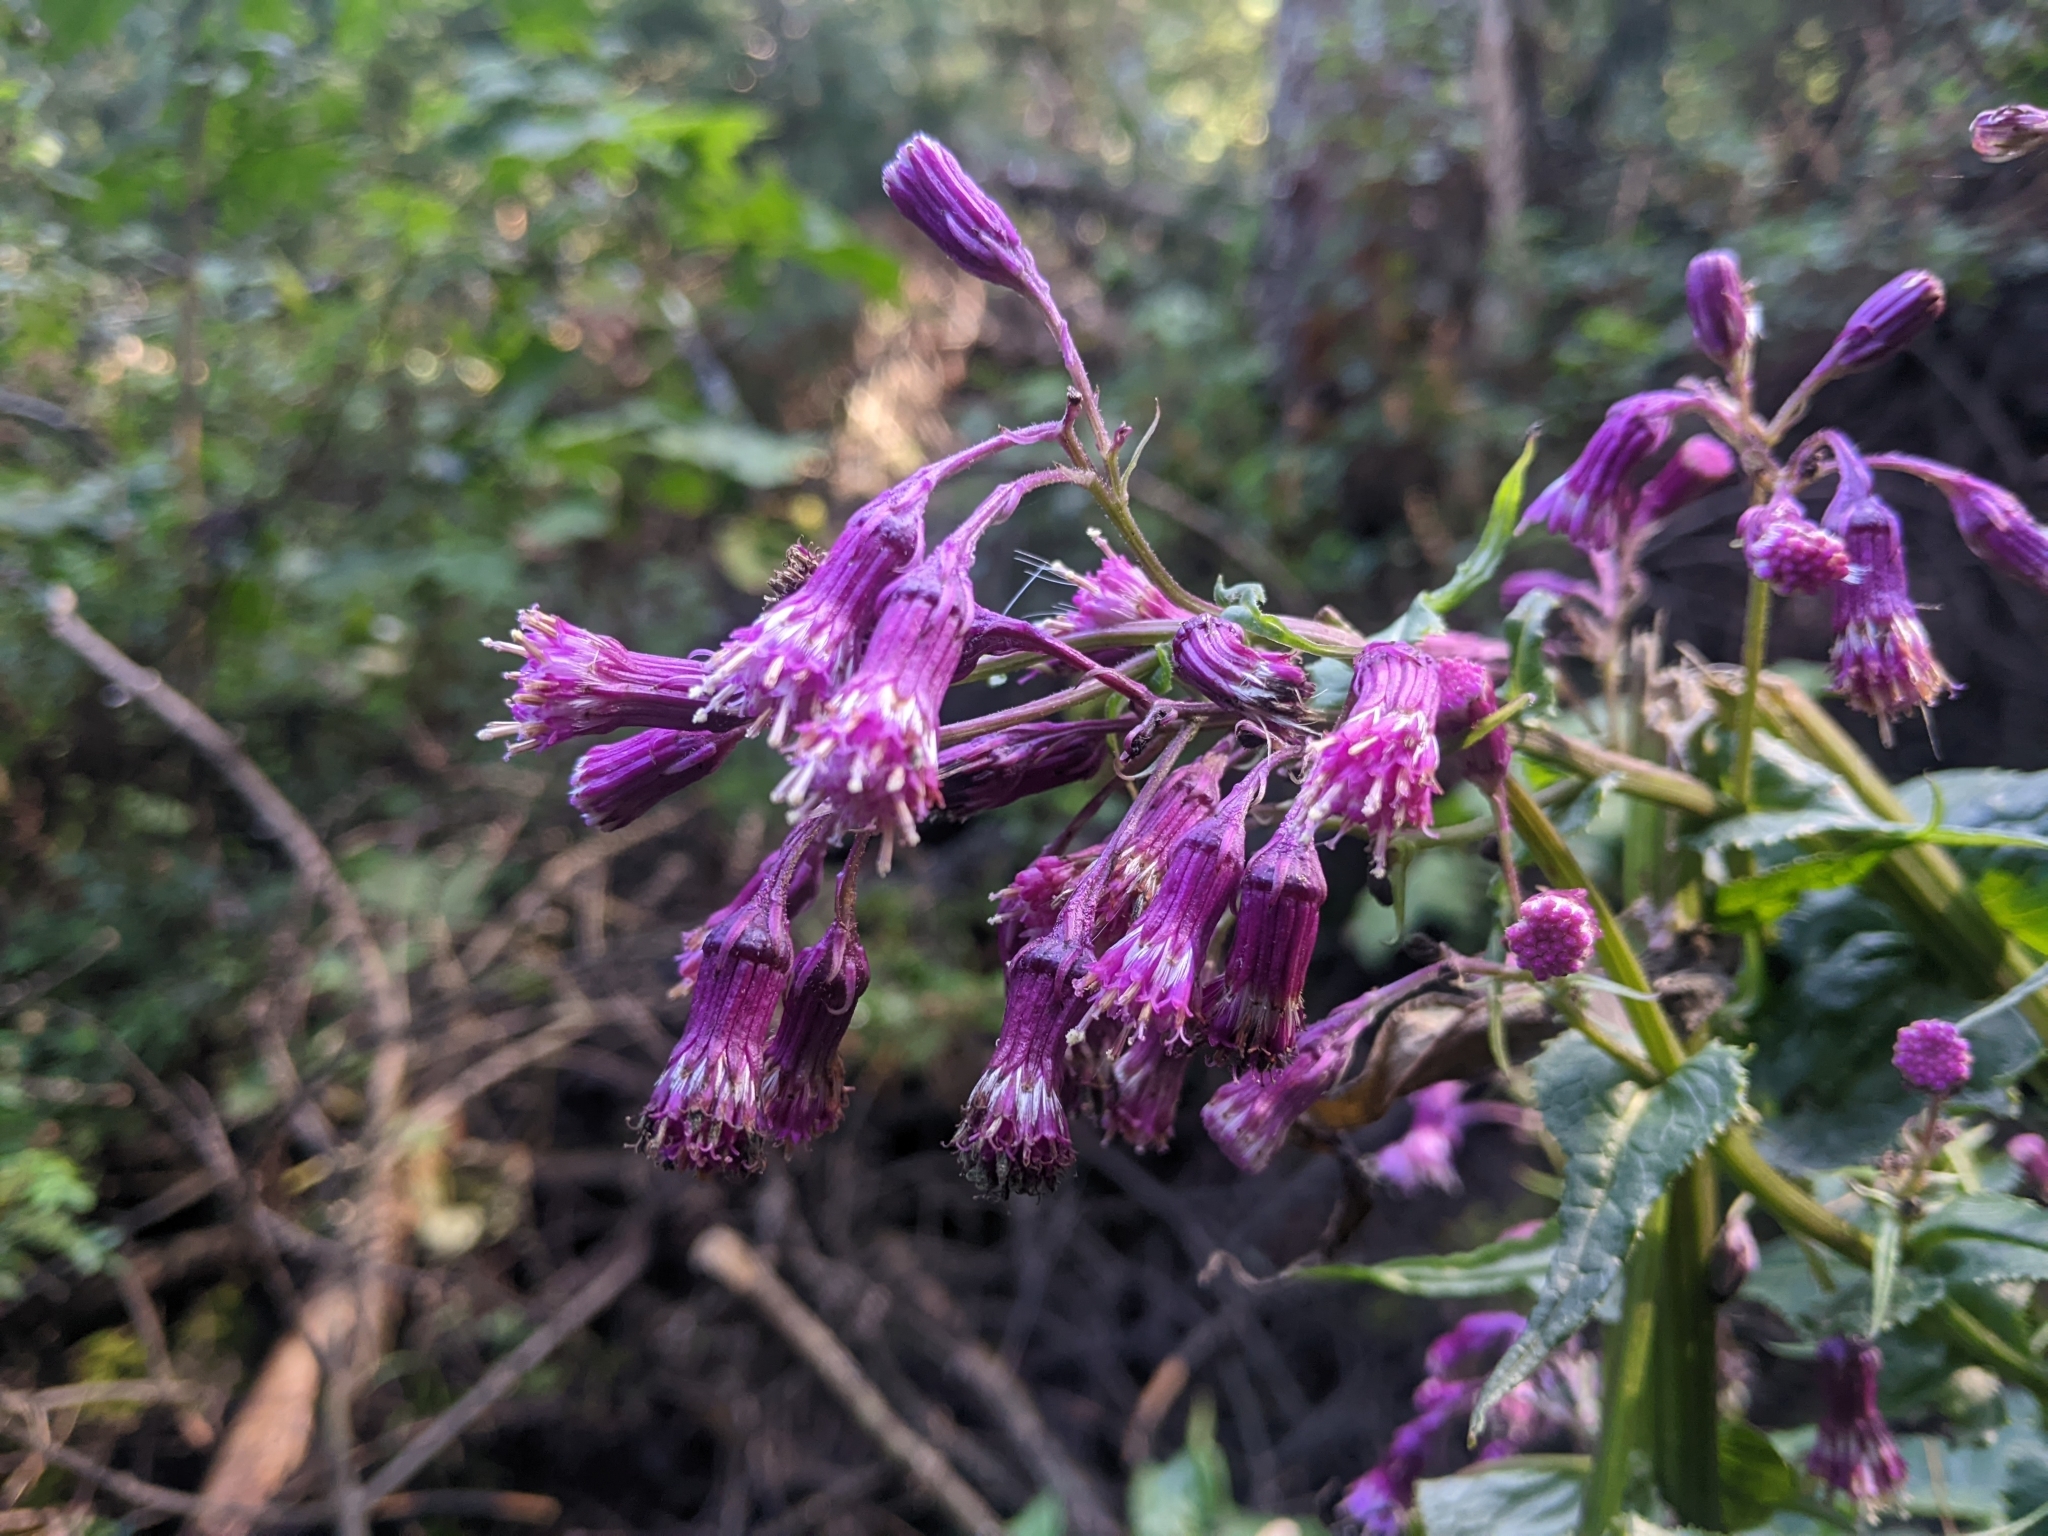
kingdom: Plantae
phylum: Tracheophyta
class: Magnoliopsida
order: Asterales
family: Asteraceae
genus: Senecio
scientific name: Senecio callosus
